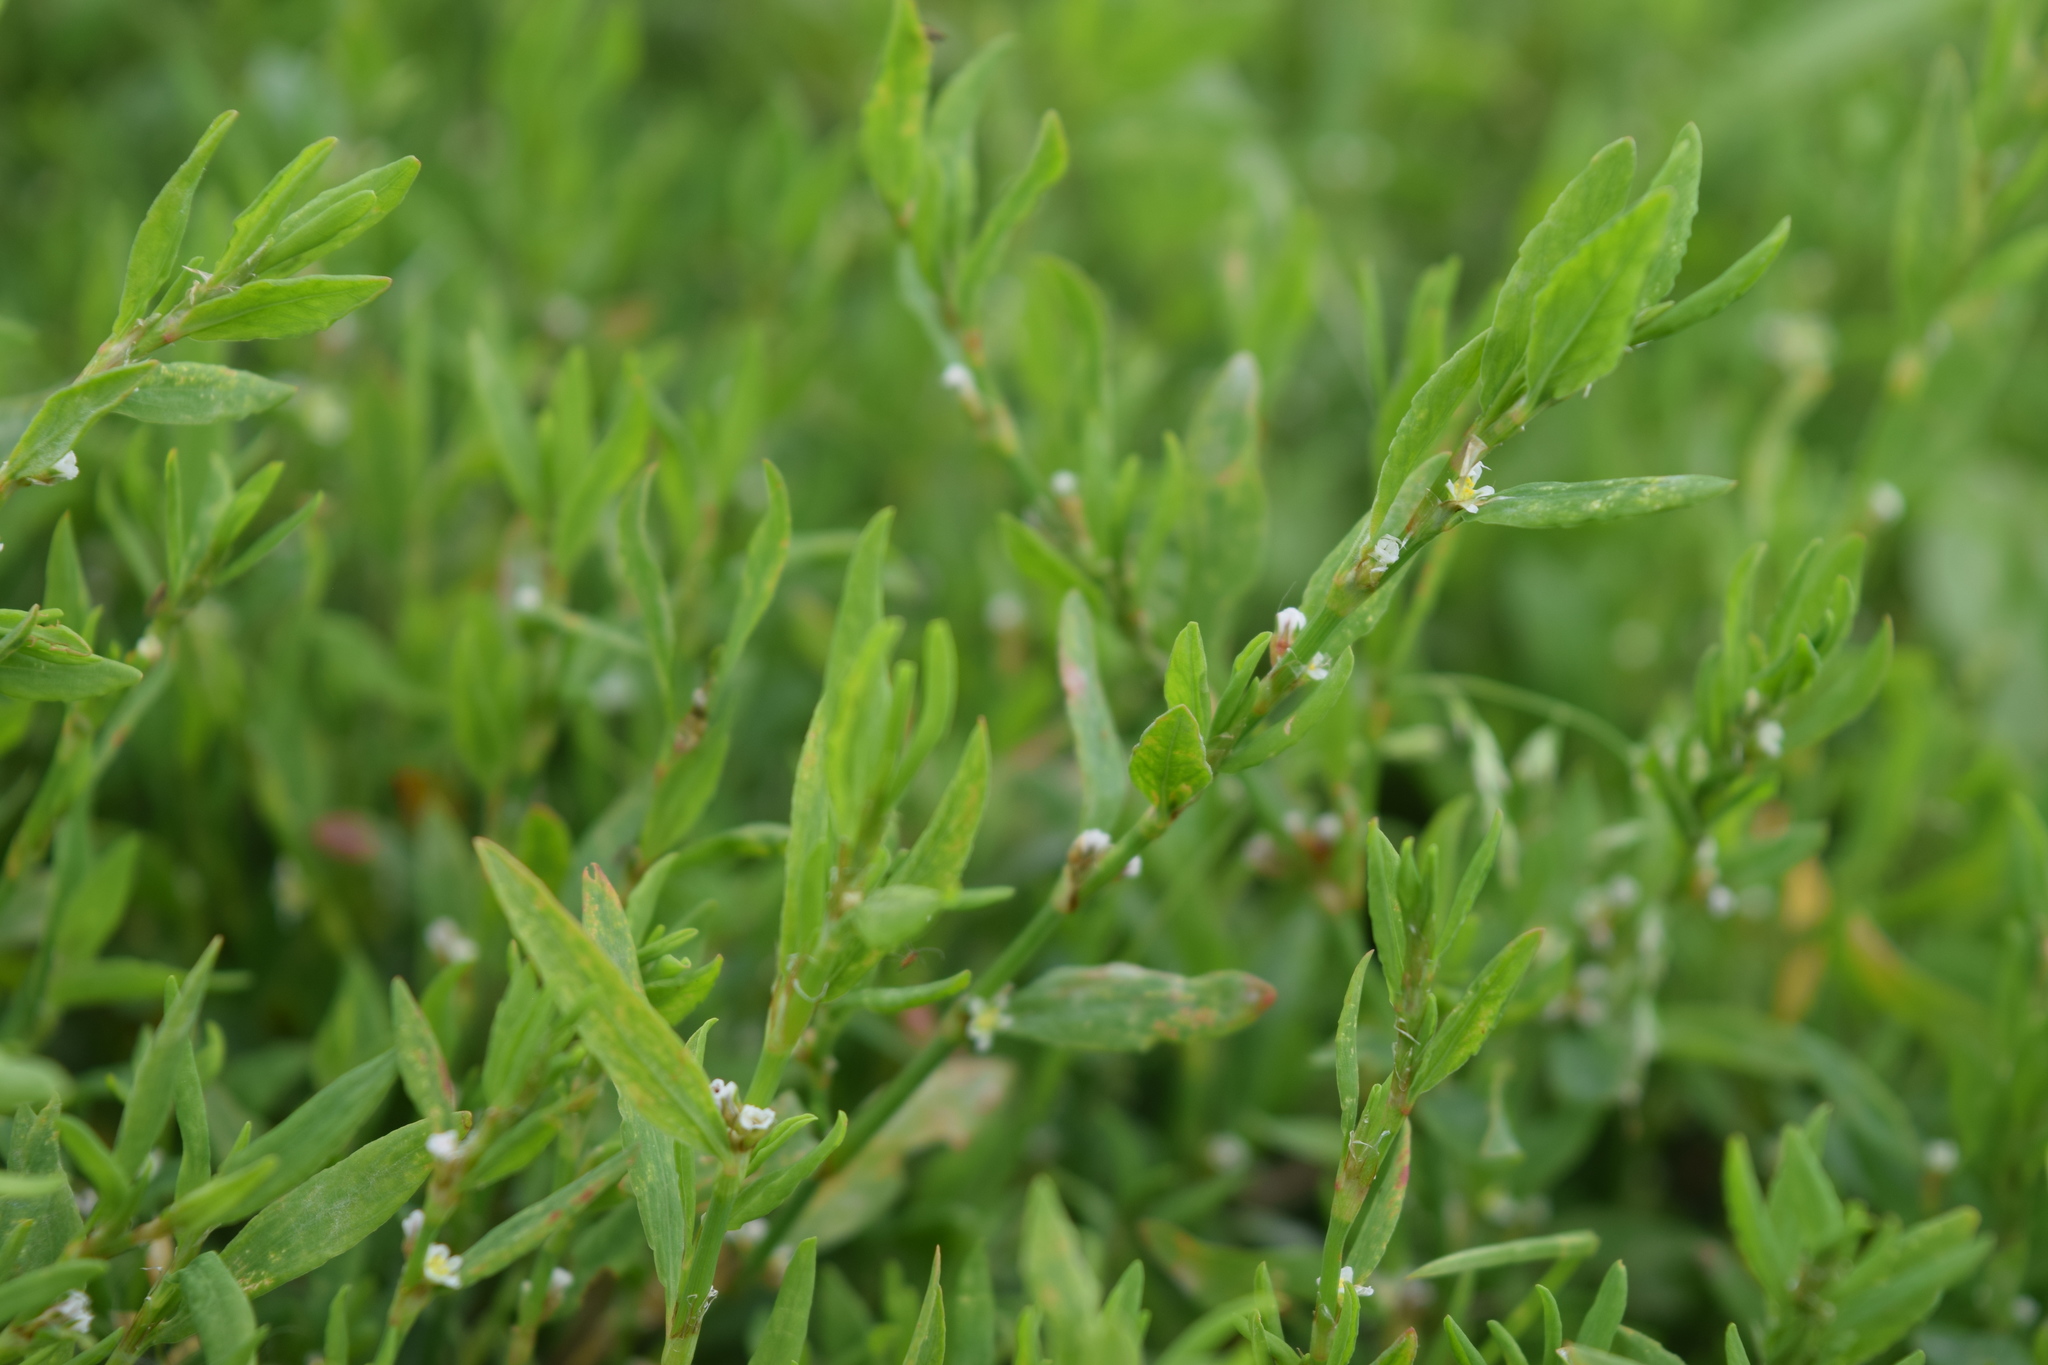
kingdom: Plantae
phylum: Tracheophyta
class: Magnoliopsida
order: Caryophyllales
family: Polygonaceae
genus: Polygonum
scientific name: Polygonum aviculare
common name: Prostrate knotweed
